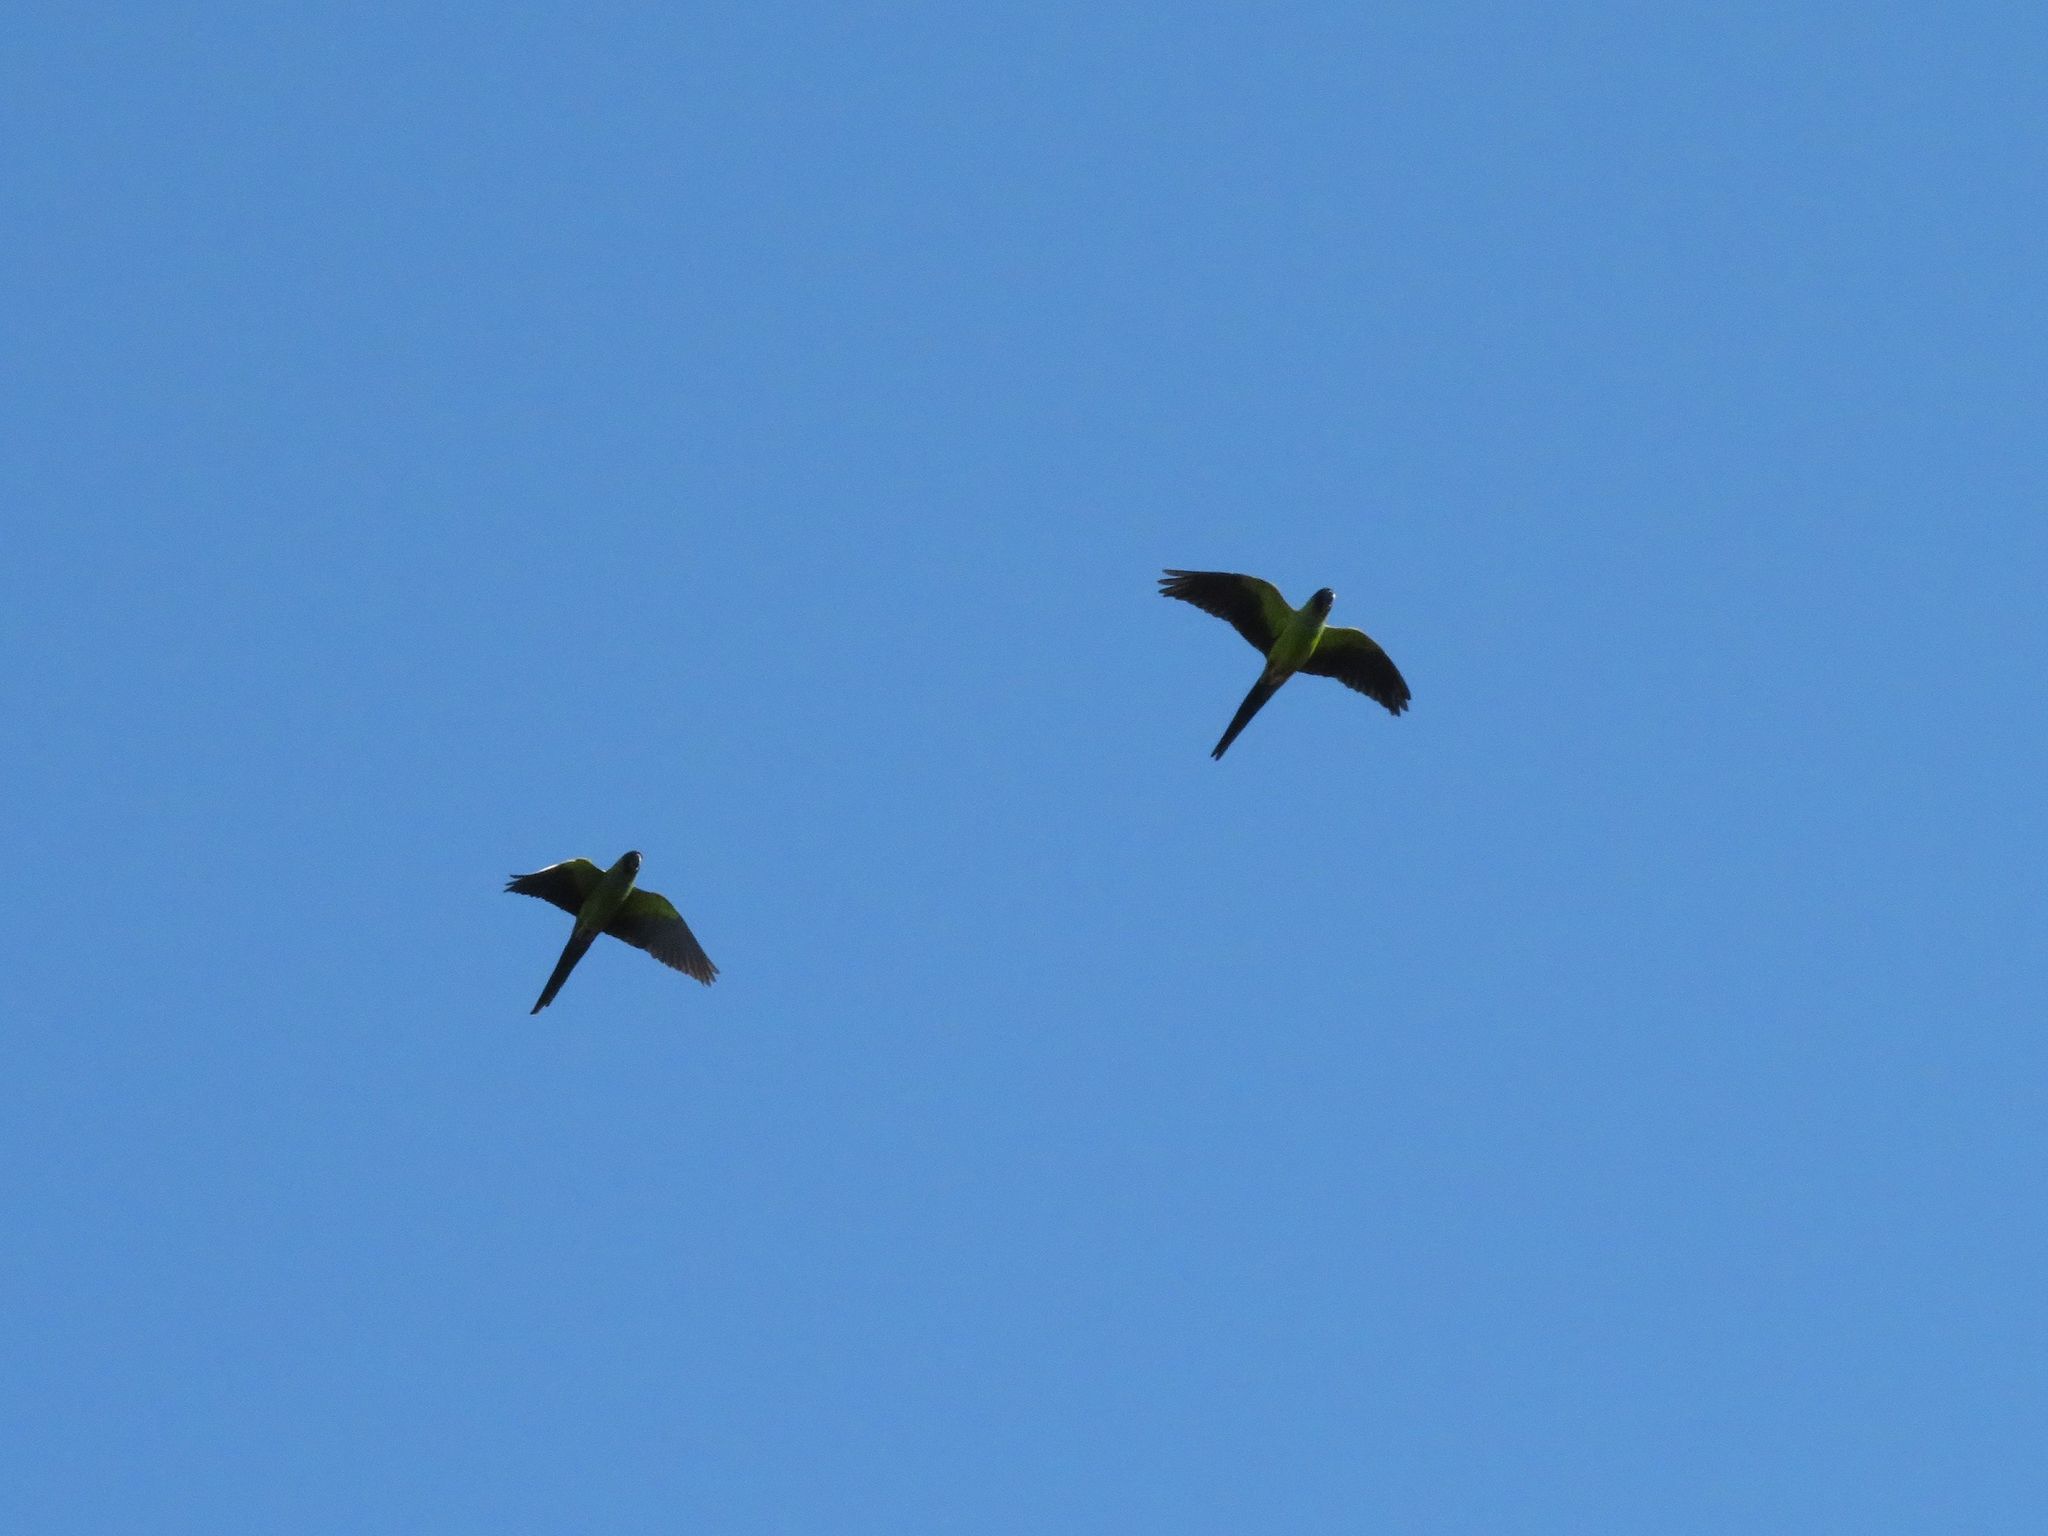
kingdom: Animalia
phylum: Chordata
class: Aves
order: Psittaciformes
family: Psittacidae
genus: Nandayus
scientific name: Nandayus nenday
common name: Nanday parakeet
